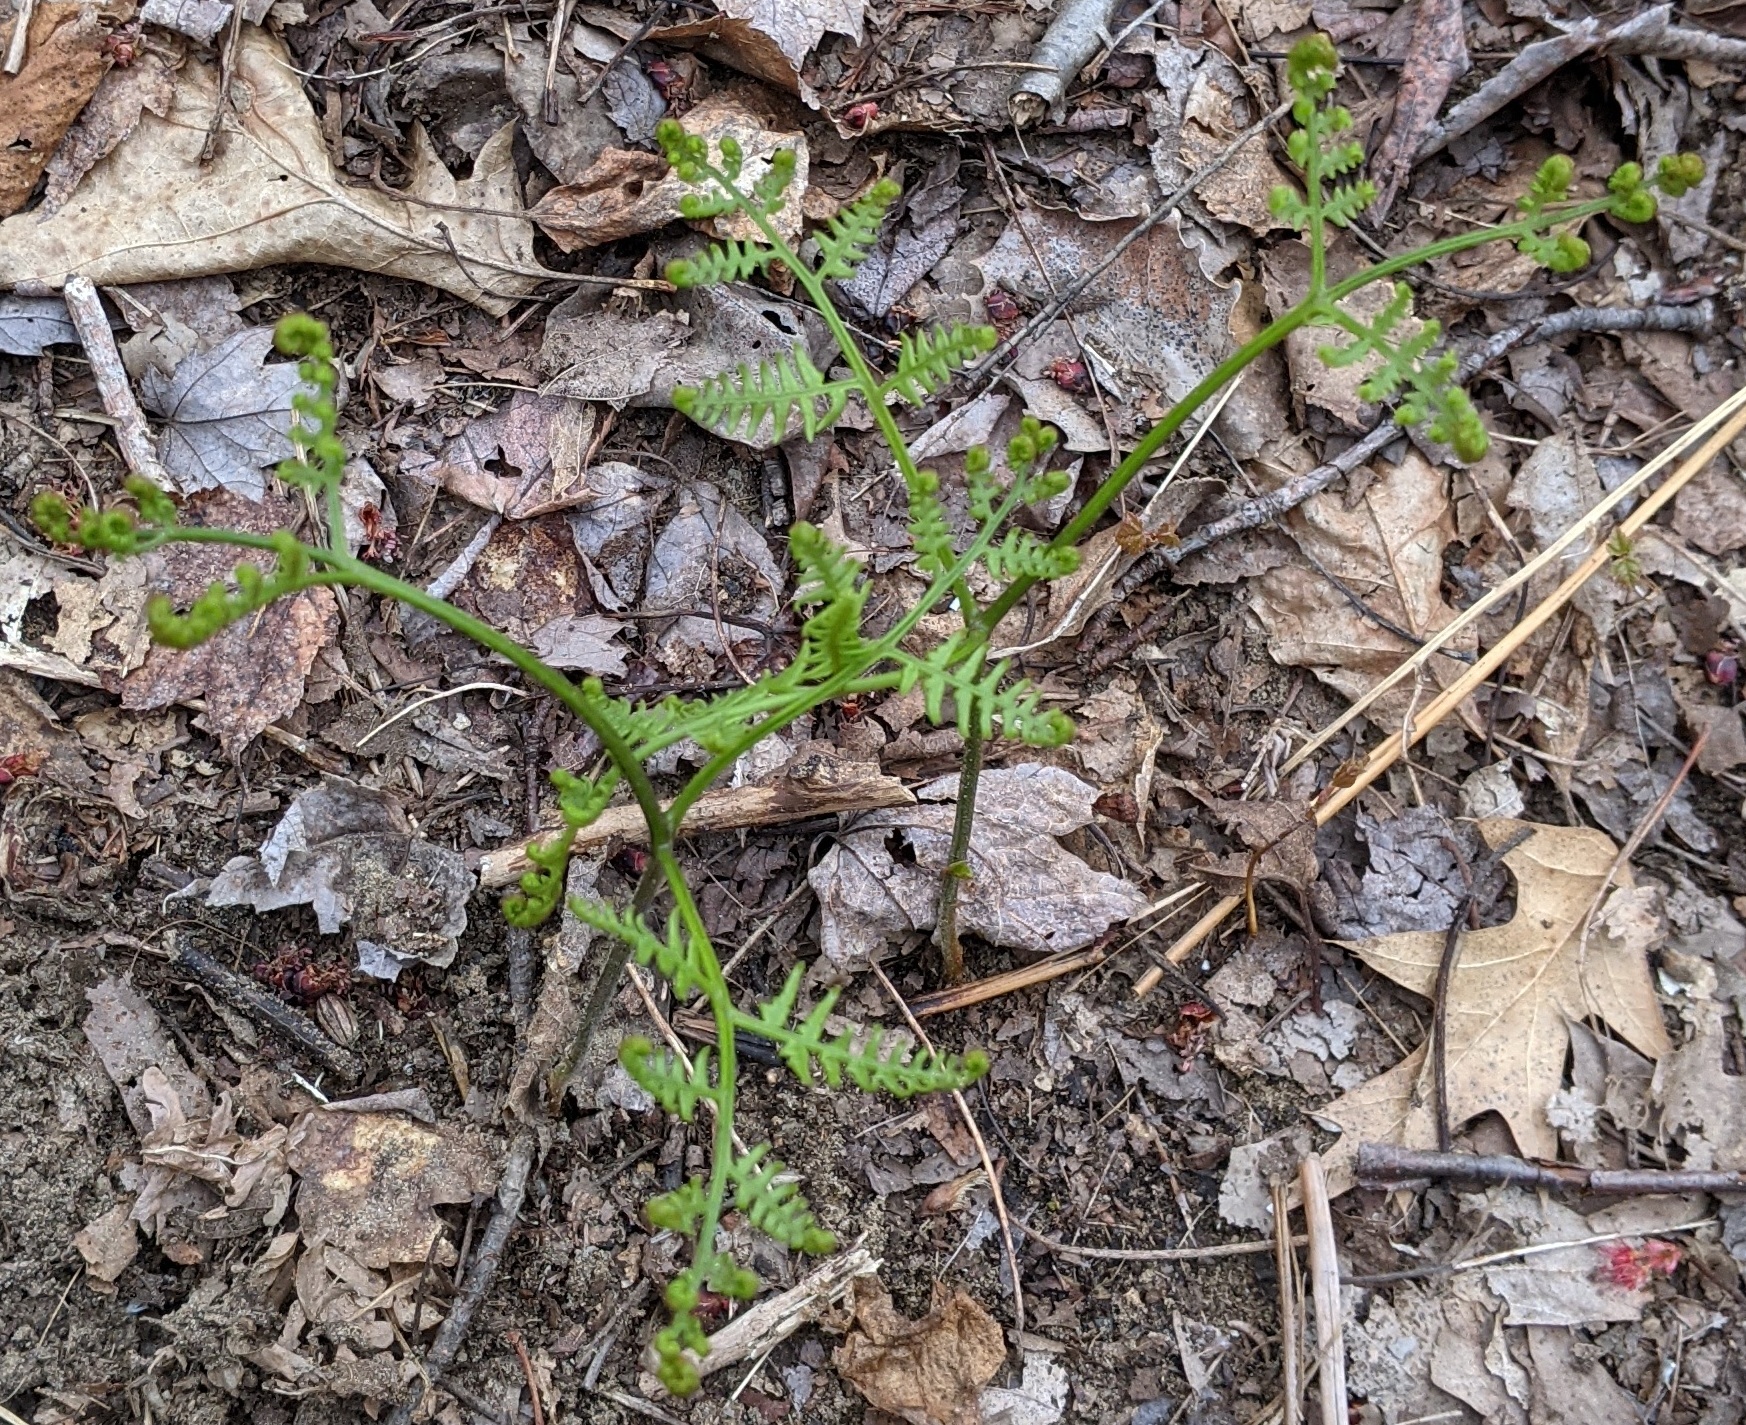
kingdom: Plantae
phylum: Tracheophyta
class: Polypodiopsida
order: Polypodiales
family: Dennstaedtiaceae
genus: Pteridium
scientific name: Pteridium aquilinum
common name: Bracken
